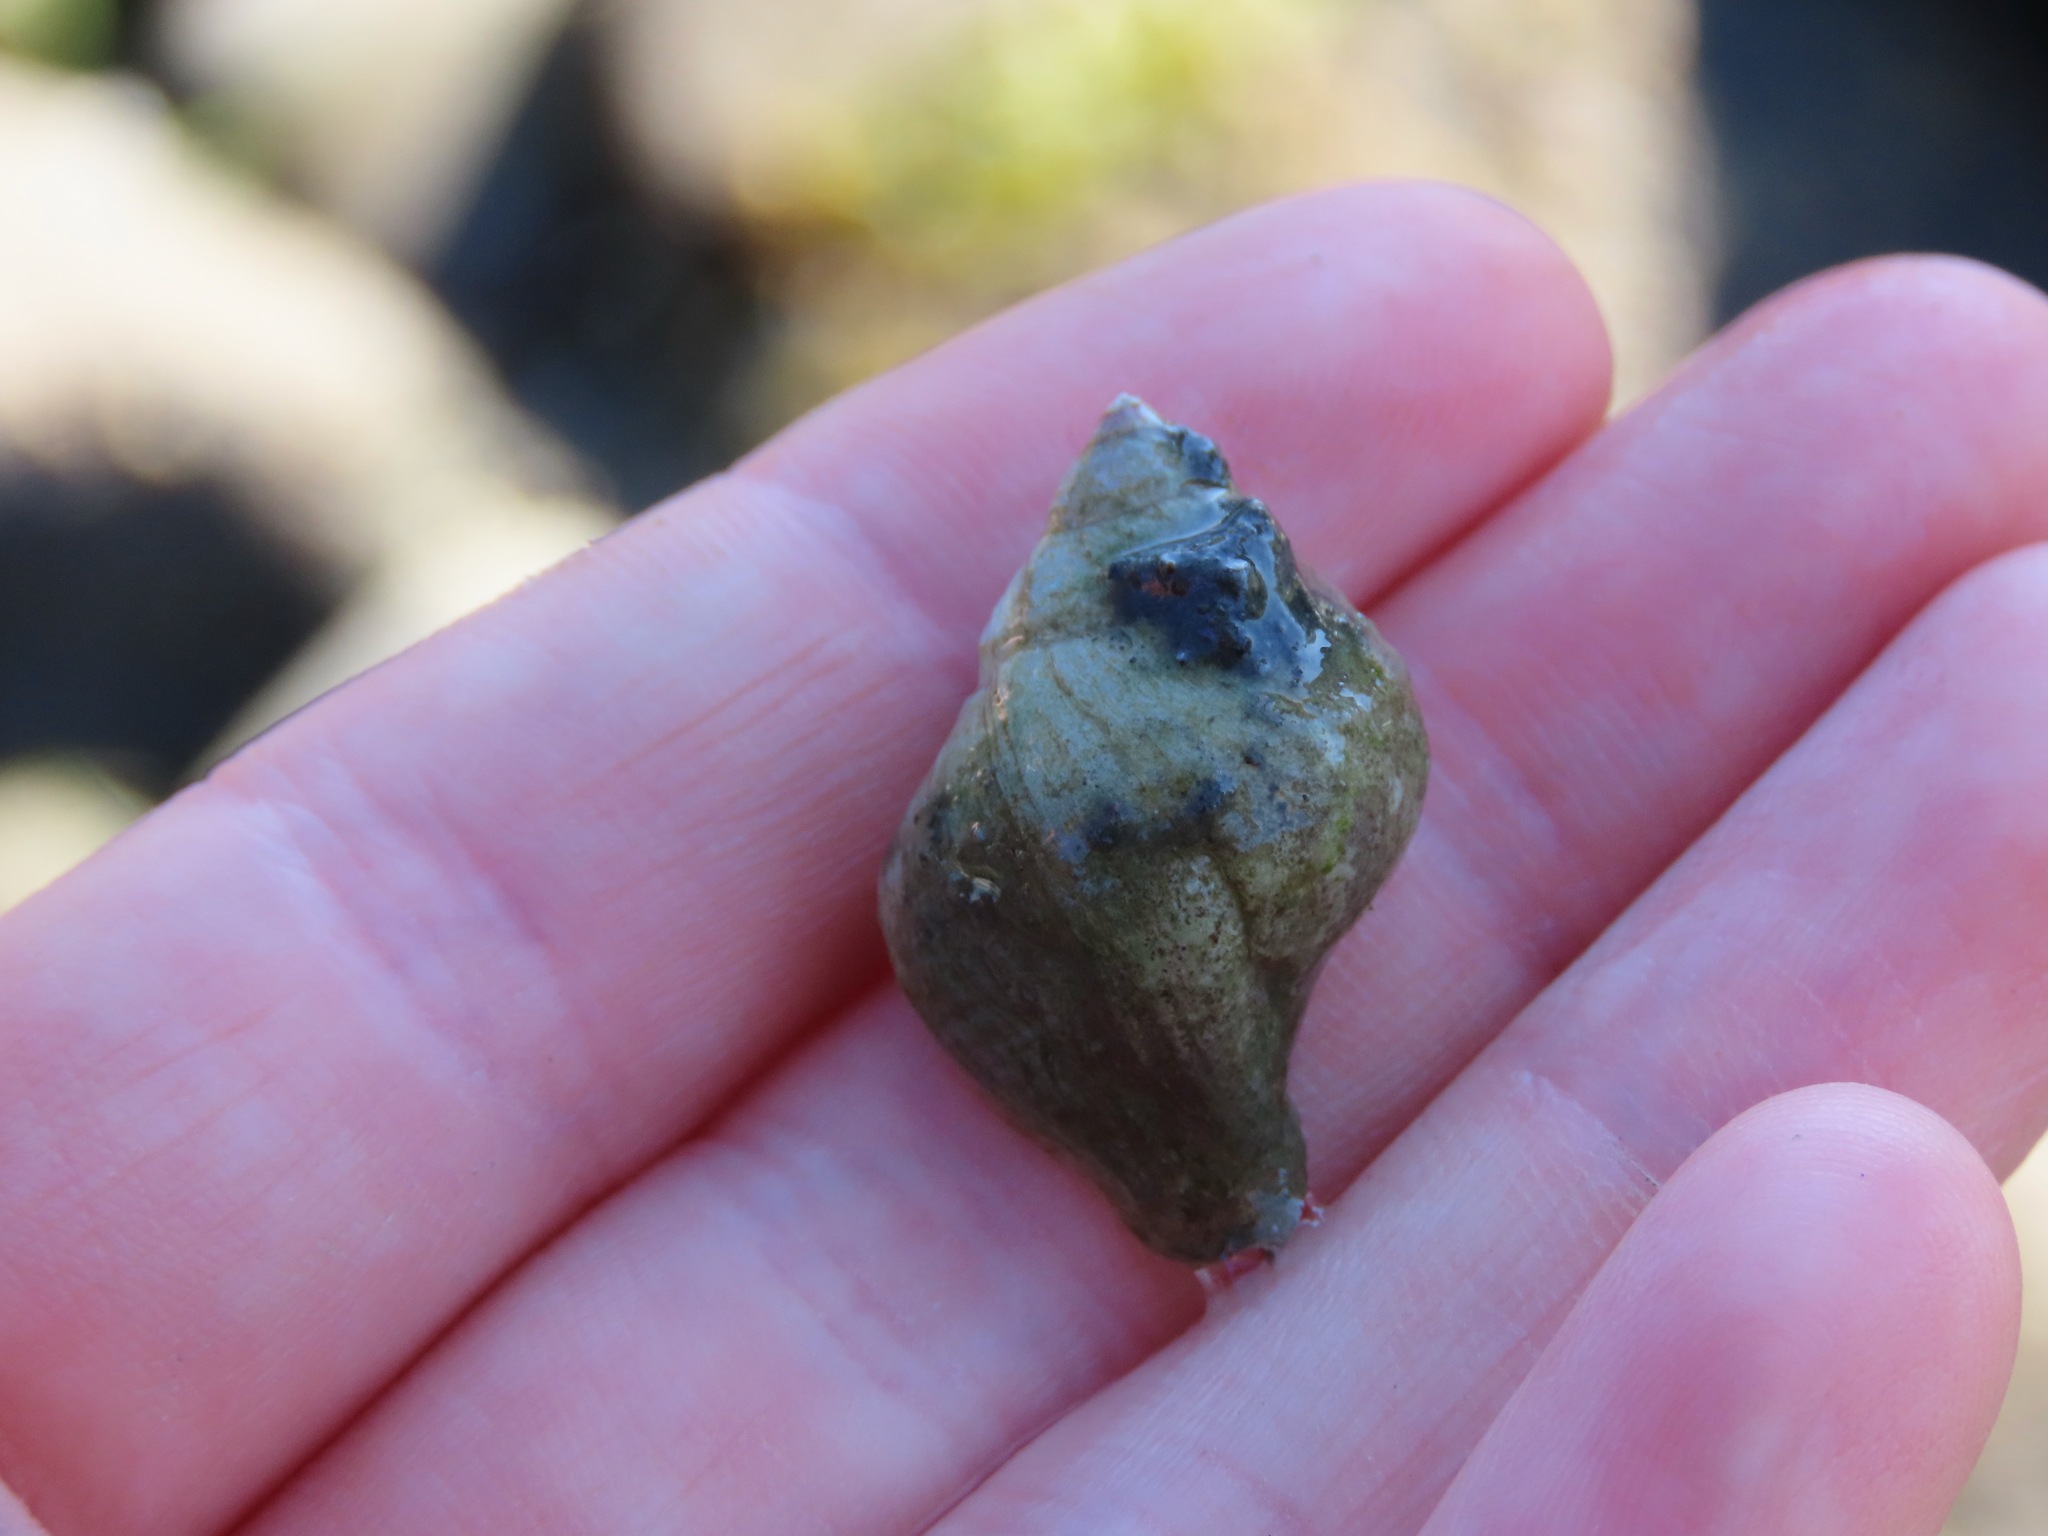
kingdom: Animalia
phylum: Mollusca
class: Gastropoda
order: Neogastropoda
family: Muricidae
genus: Nucella
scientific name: Nucella lamellosa
